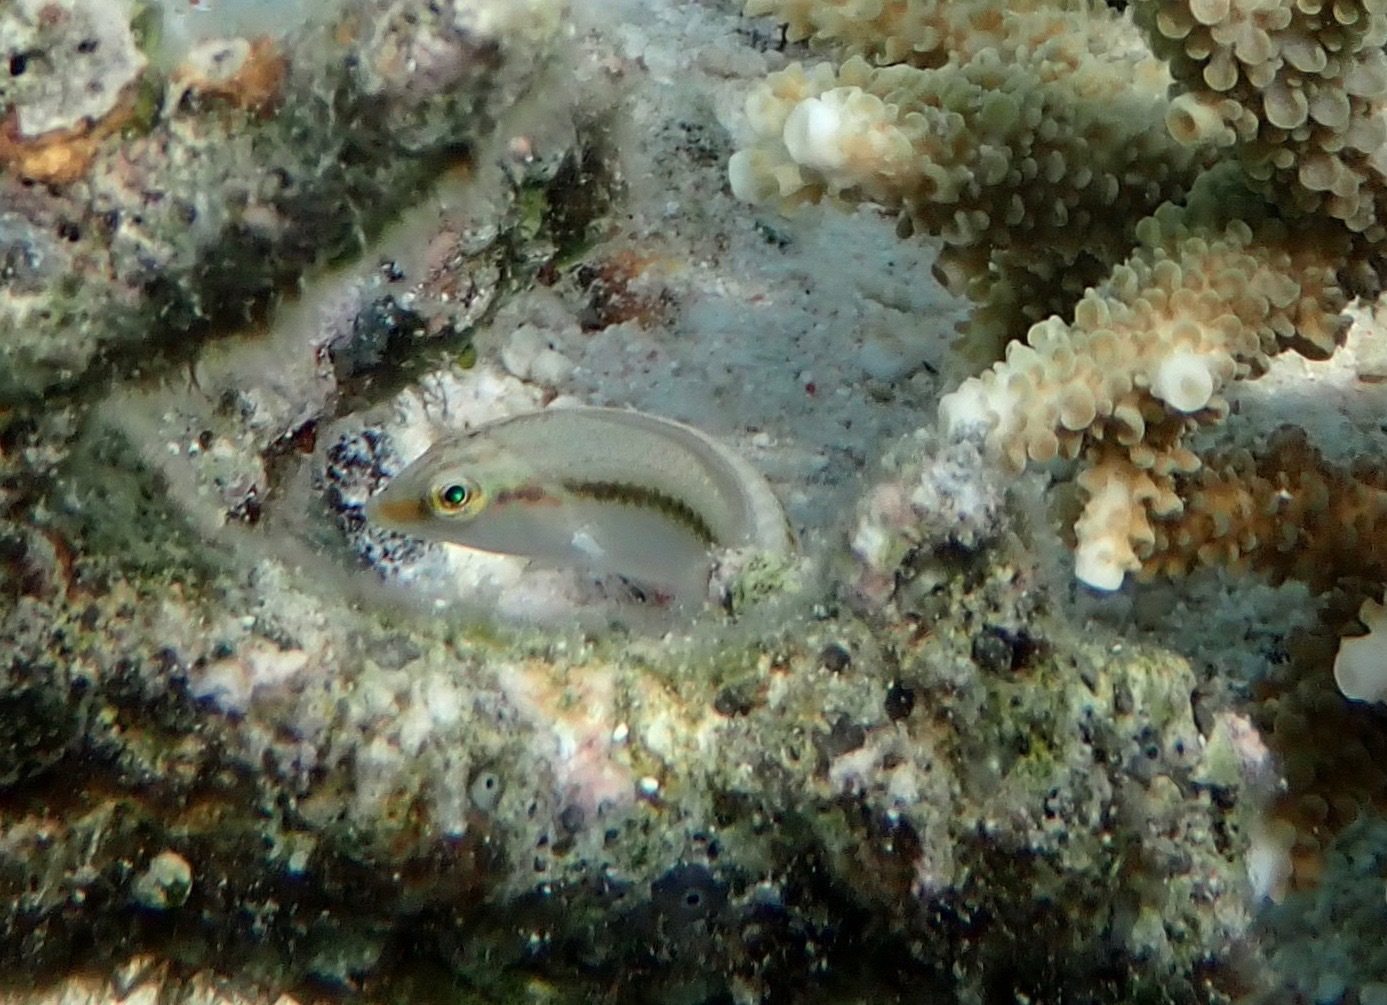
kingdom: Animalia
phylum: Chordata
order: Perciformes
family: Labridae
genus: Halichoeres
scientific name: Halichoeres scapularis
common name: Brownbanded wrasse
